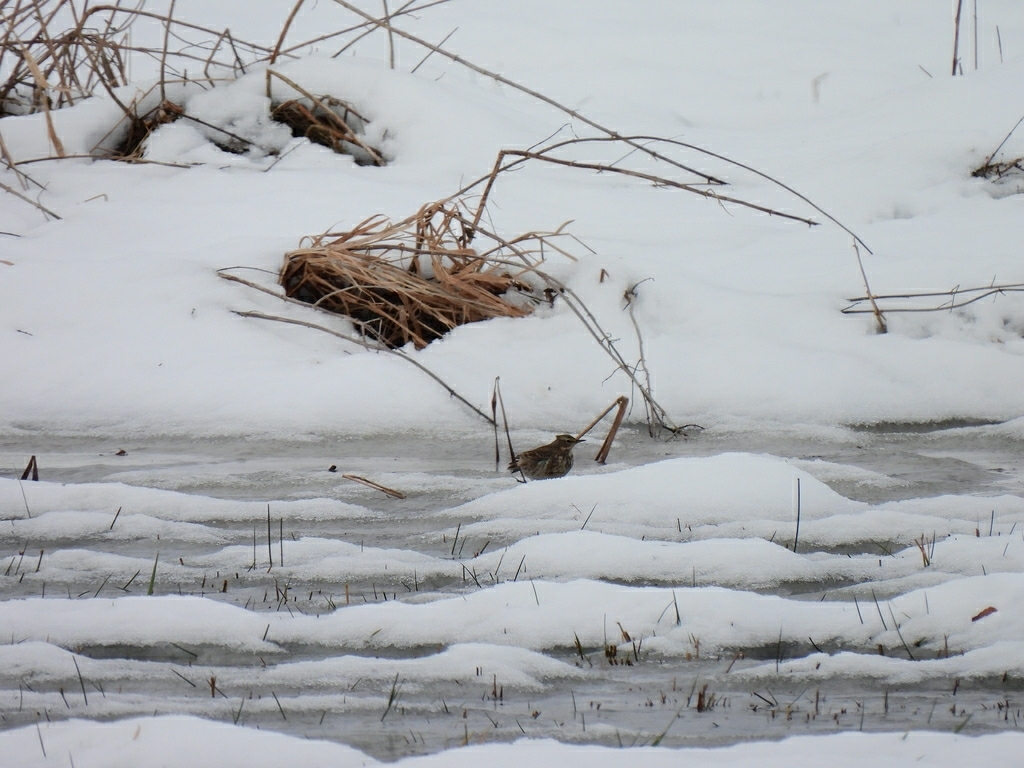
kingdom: Animalia
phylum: Chordata
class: Aves
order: Passeriformes
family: Motacillidae
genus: Anthus
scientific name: Anthus spinoletta
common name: Water pipit
